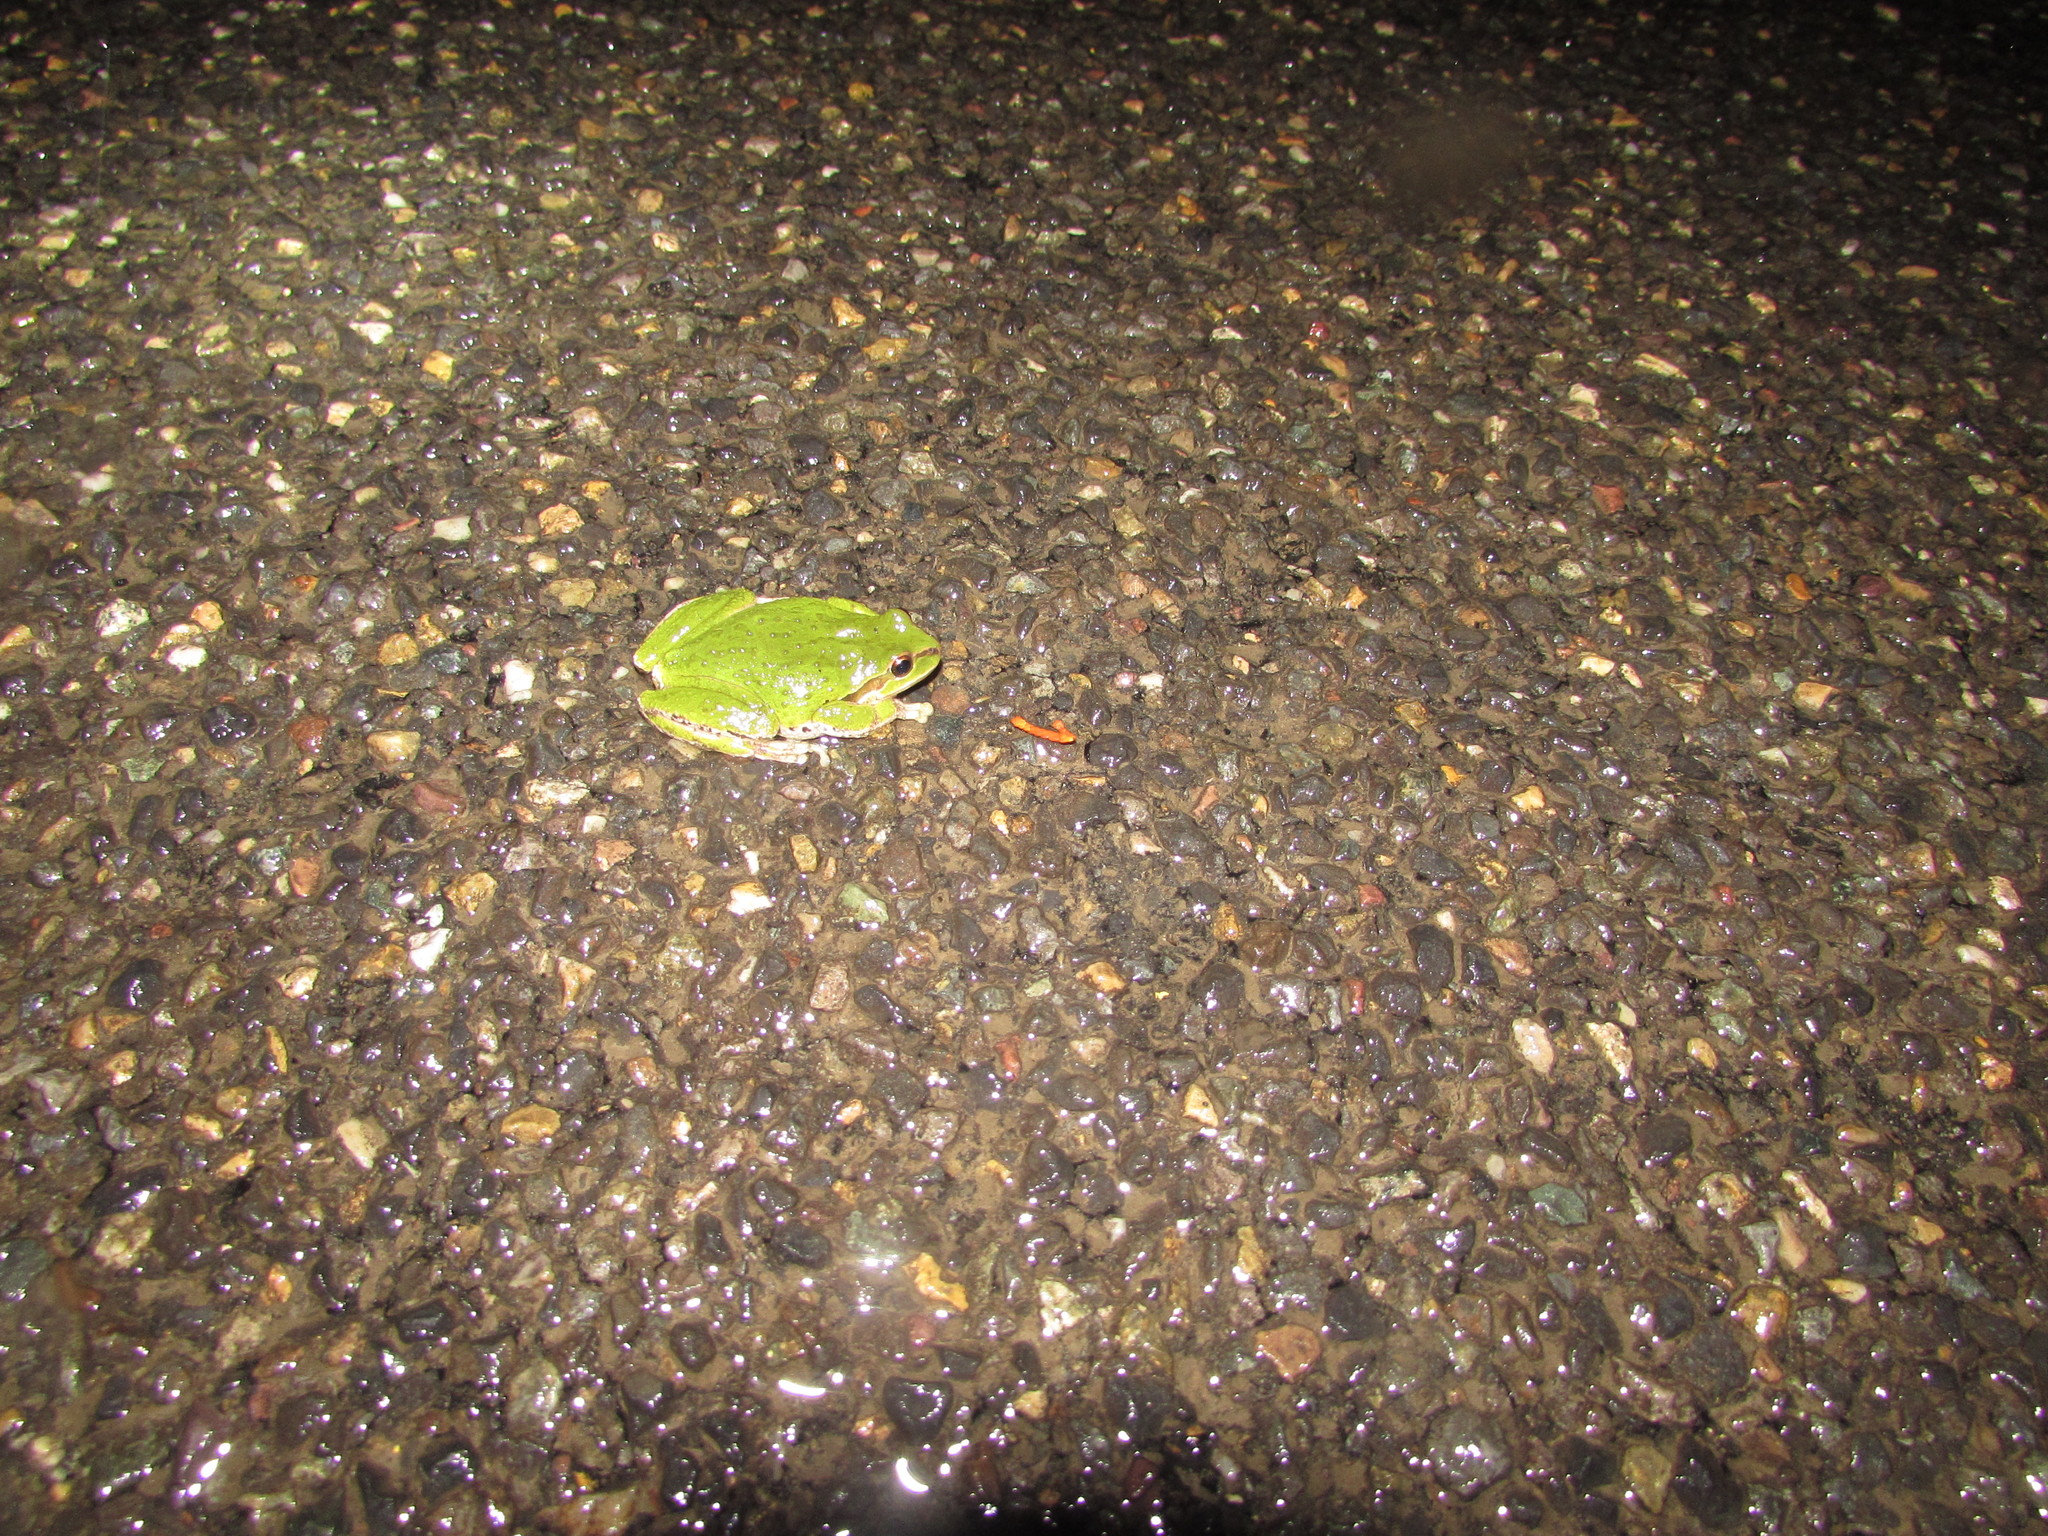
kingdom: Animalia
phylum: Chordata
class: Amphibia
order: Anura
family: Hylidae
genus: Pseudacris
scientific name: Pseudacris regilla
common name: Pacific chorus frog
